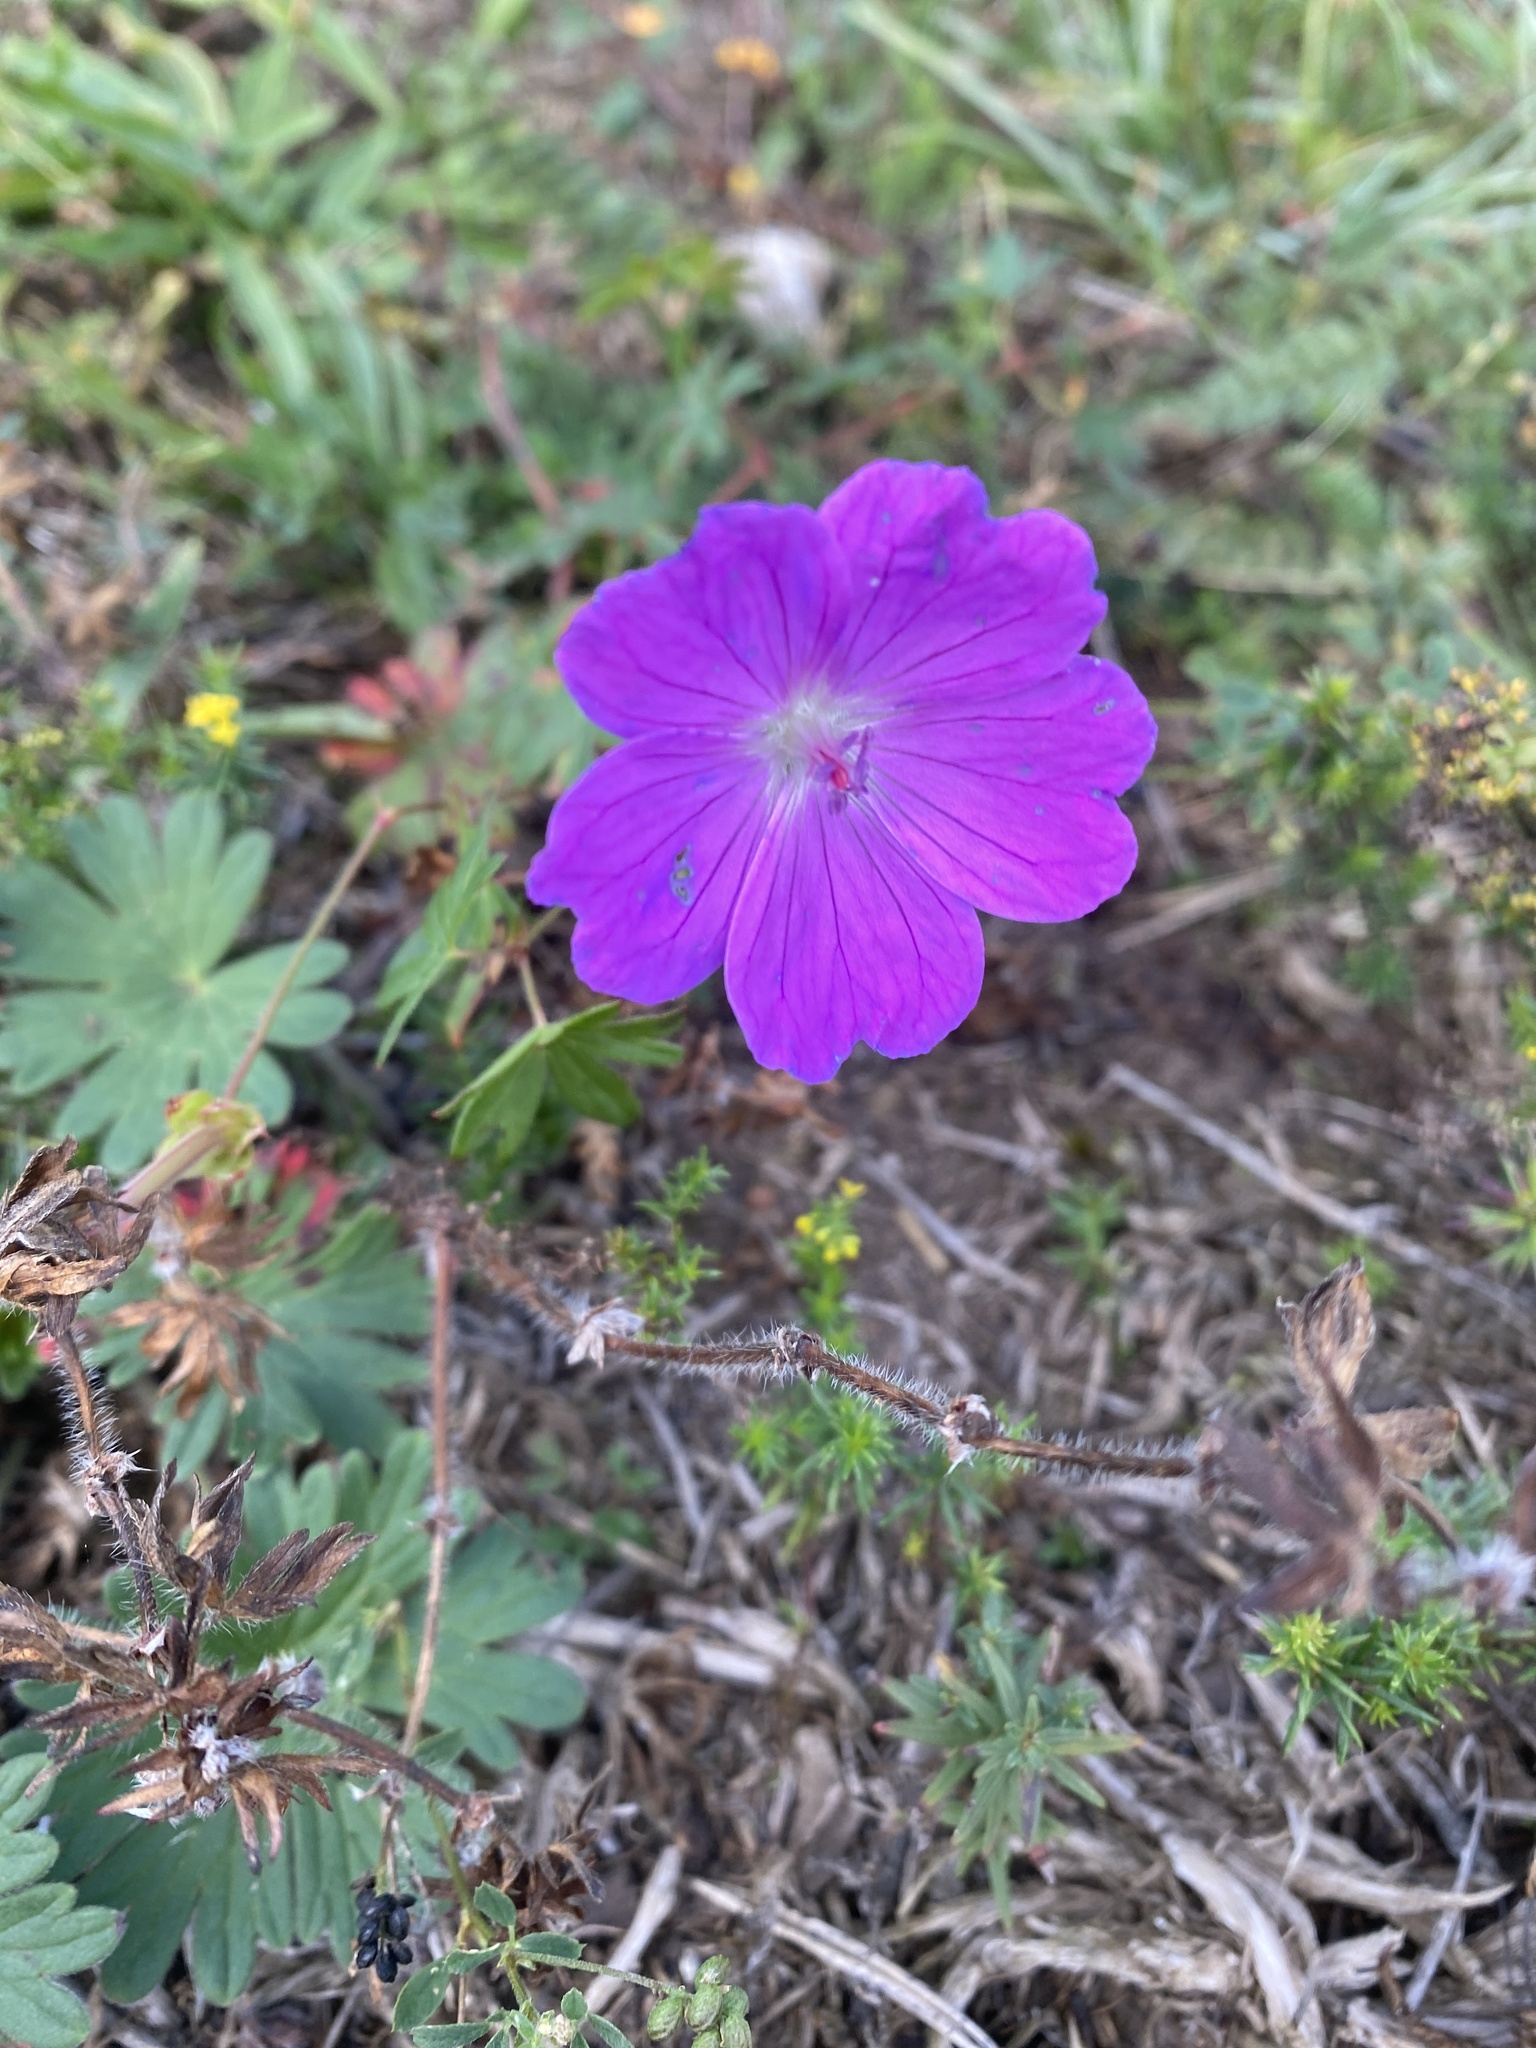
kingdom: Plantae
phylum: Tracheophyta
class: Magnoliopsida
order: Geraniales
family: Geraniaceae
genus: Geranium
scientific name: Geranium sanguineum
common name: Bloody crane's-bill
